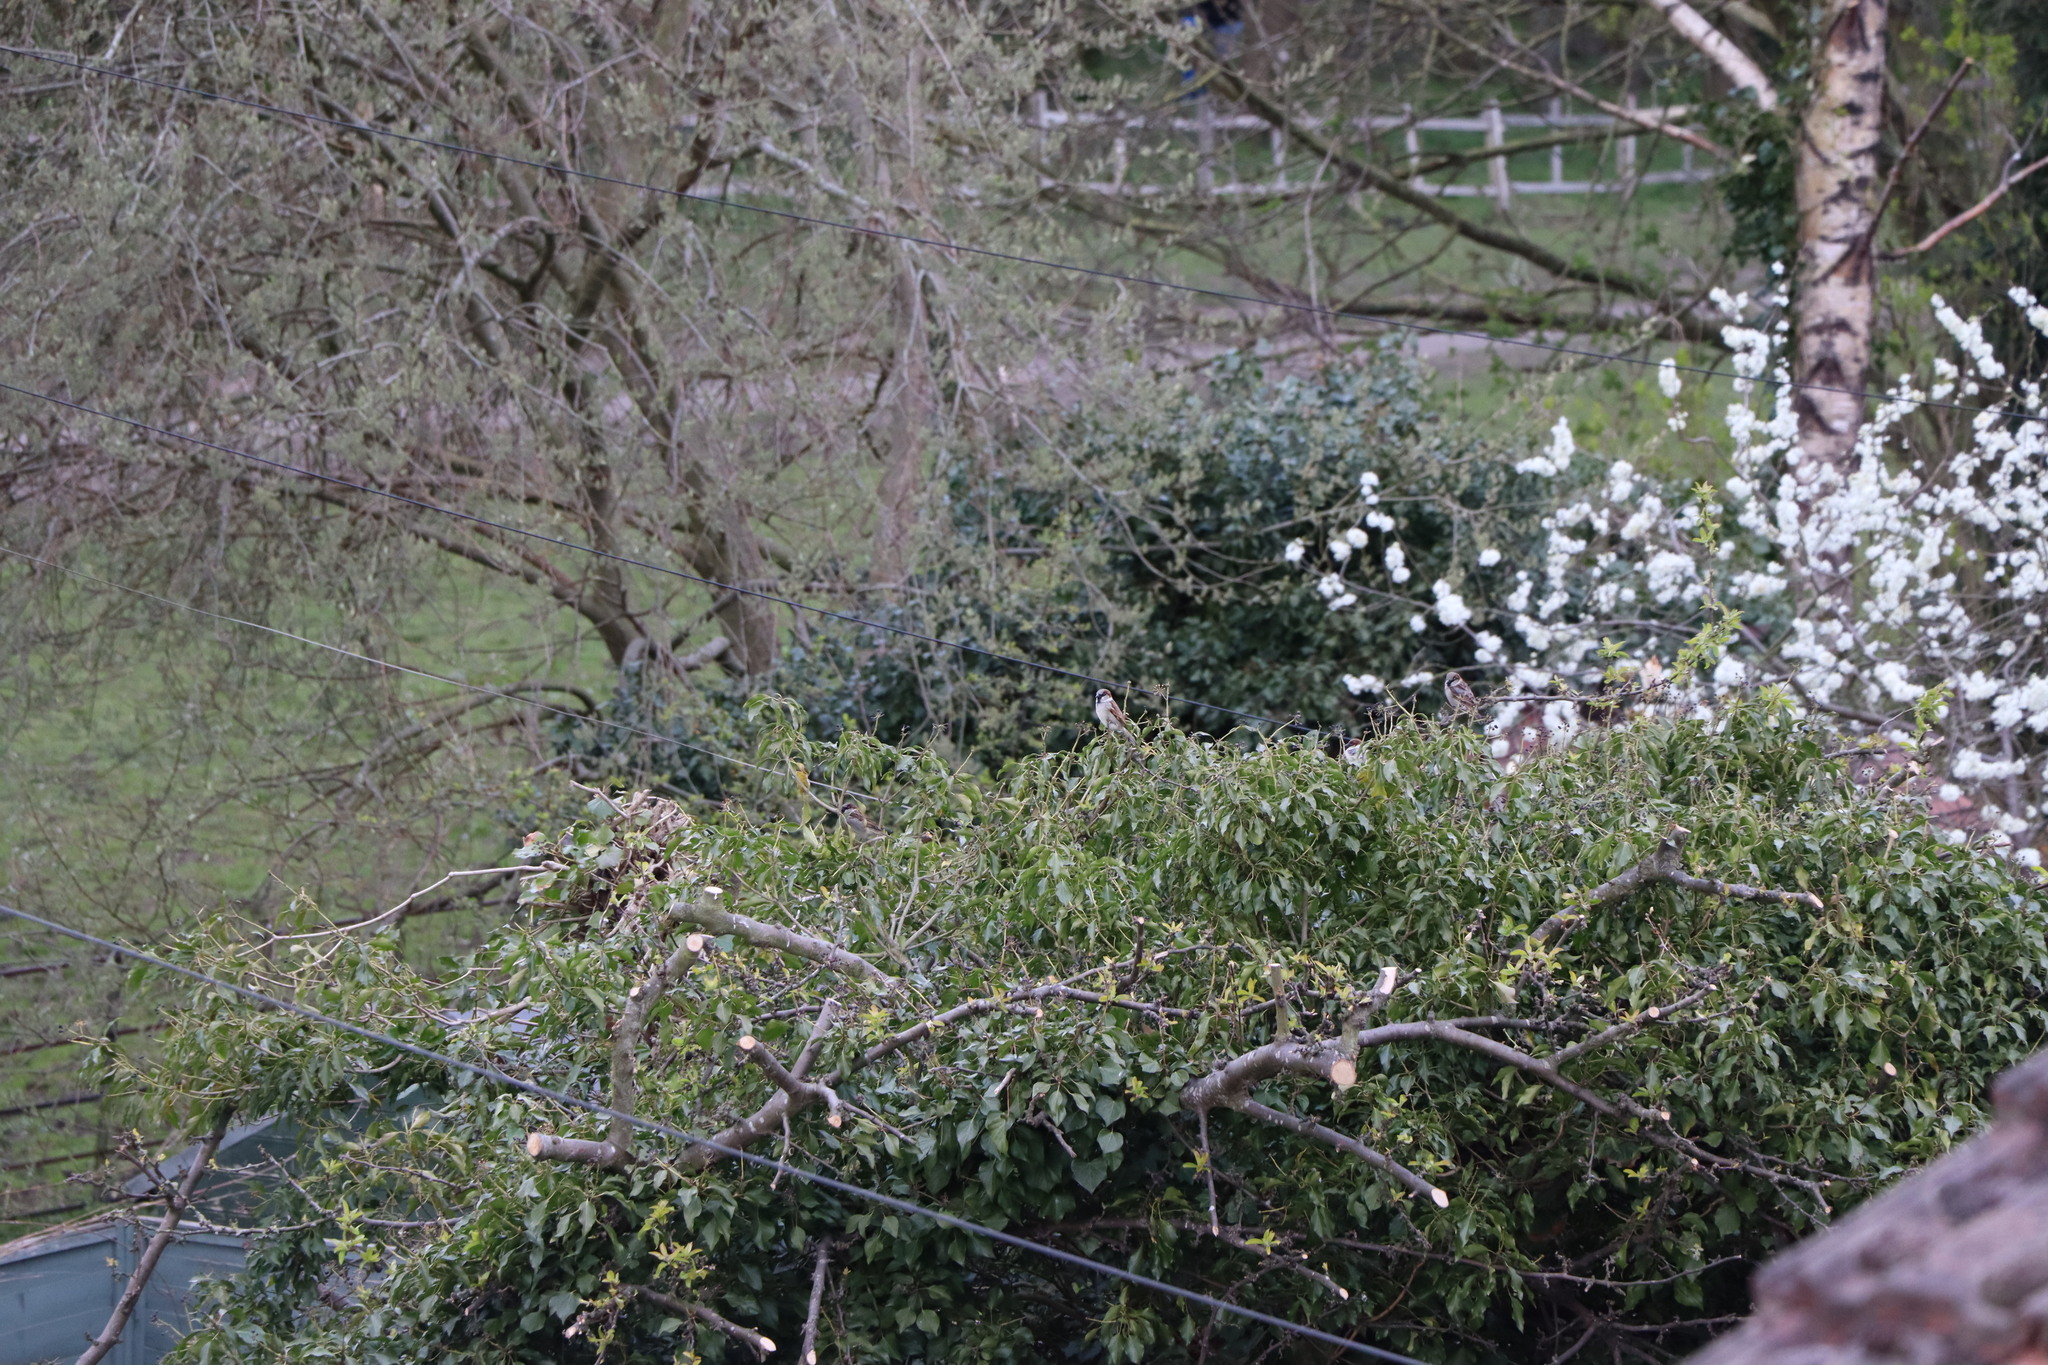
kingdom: Animalia
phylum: Chordata
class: Aves
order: Passeriformes
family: Passeridae
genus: Passer
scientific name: Passer domesticus
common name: House sparrow
